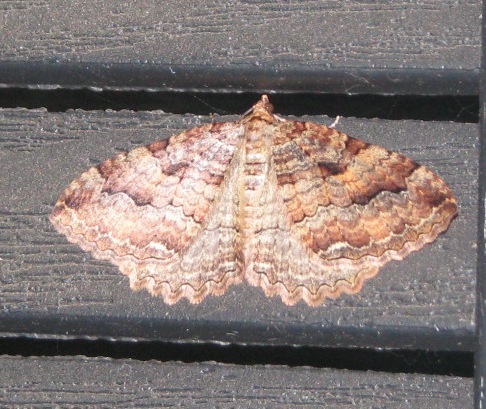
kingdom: Animalia
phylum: Arthropoda
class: Insecta
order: Lepidoptera
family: Geometridae
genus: Triphosa
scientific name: Triphosa haesitata
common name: Tissue moth
